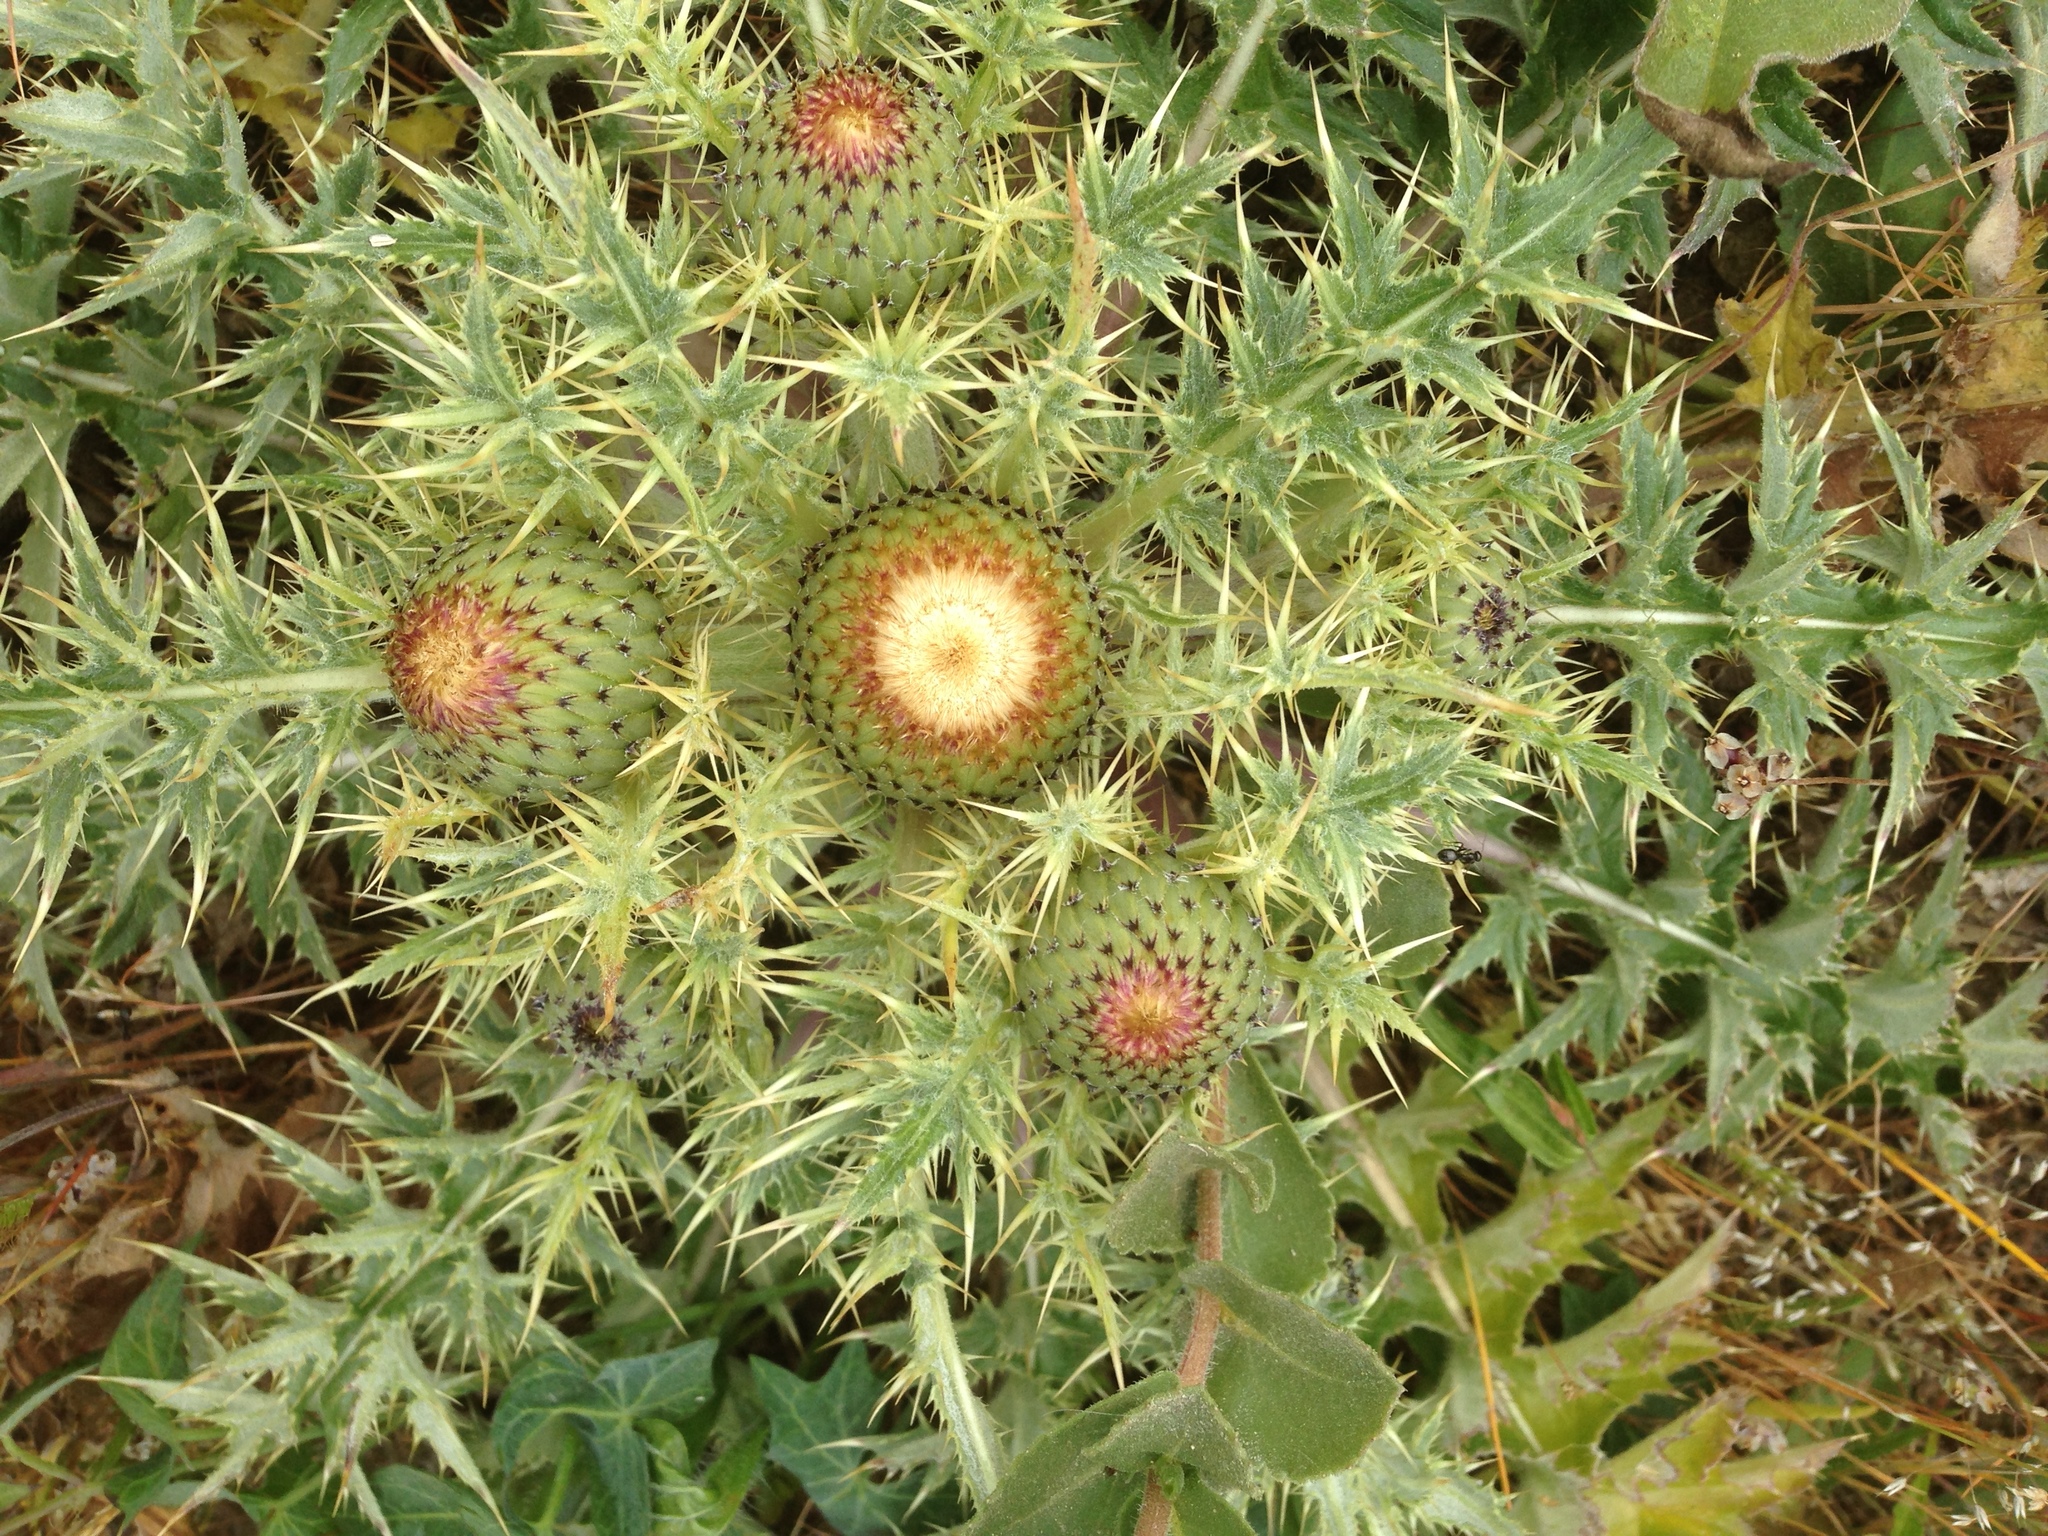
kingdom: Plantae
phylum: Tracheophyta
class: Magnoliopsida
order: Asterales
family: Asteraceae
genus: Cirsium
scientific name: Cirsium quercetorum
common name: Alameda county thistle
